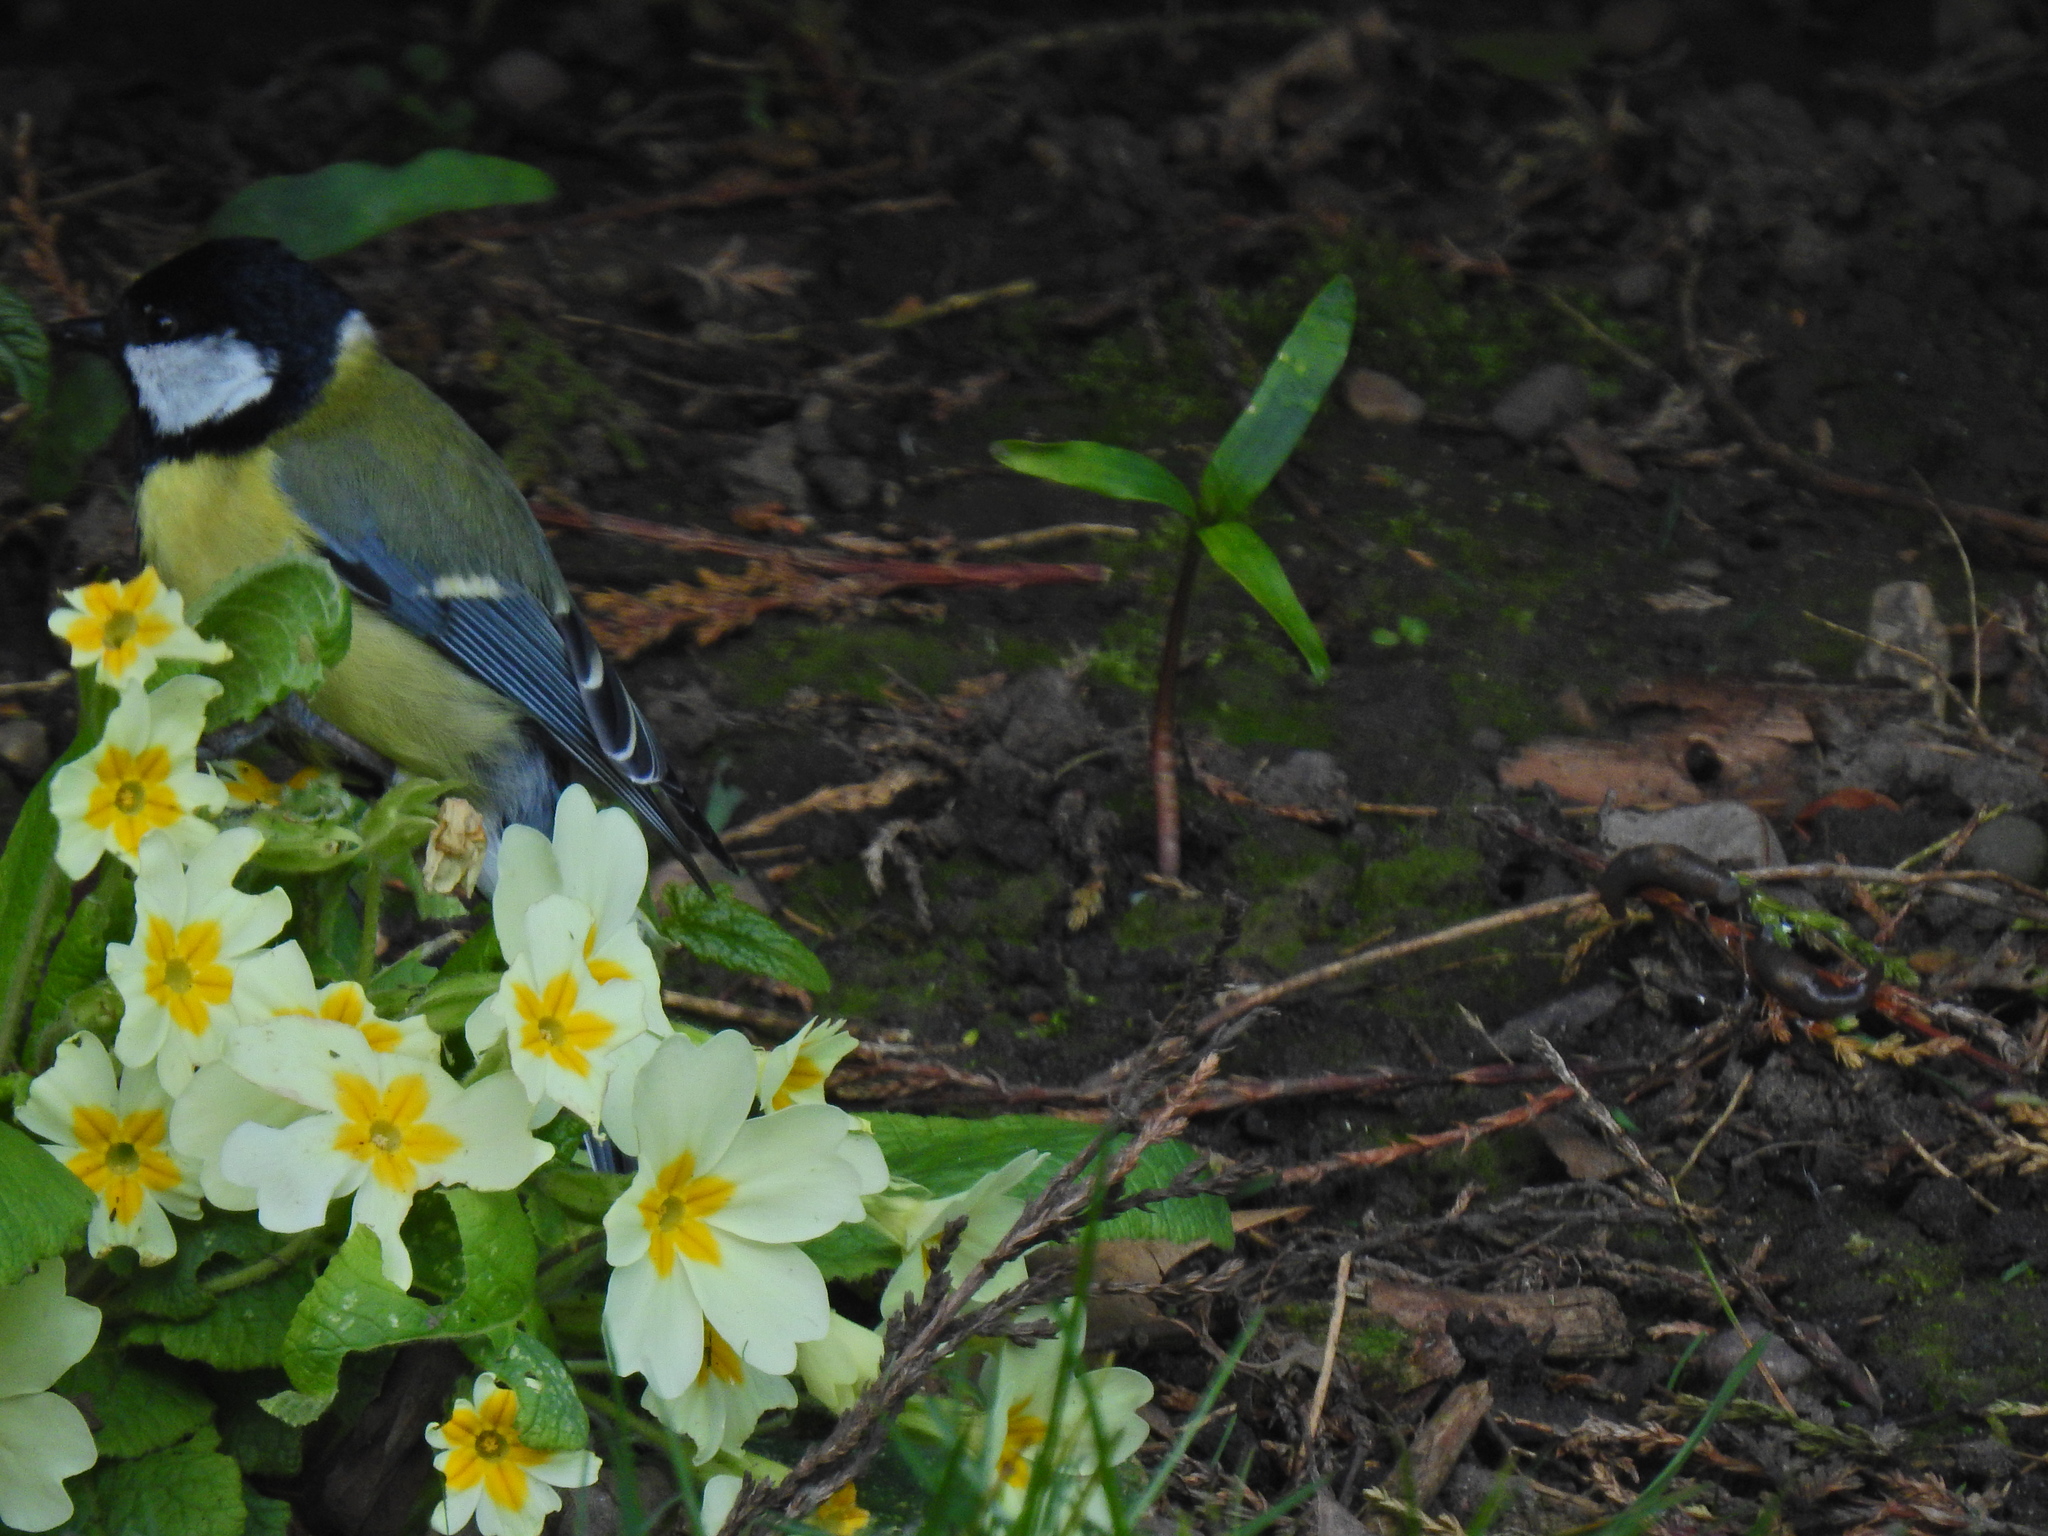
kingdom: Animalia
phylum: Chordata
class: Aves
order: Passeriformes
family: Paridae
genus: Parus
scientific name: Parus major
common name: Great tit
